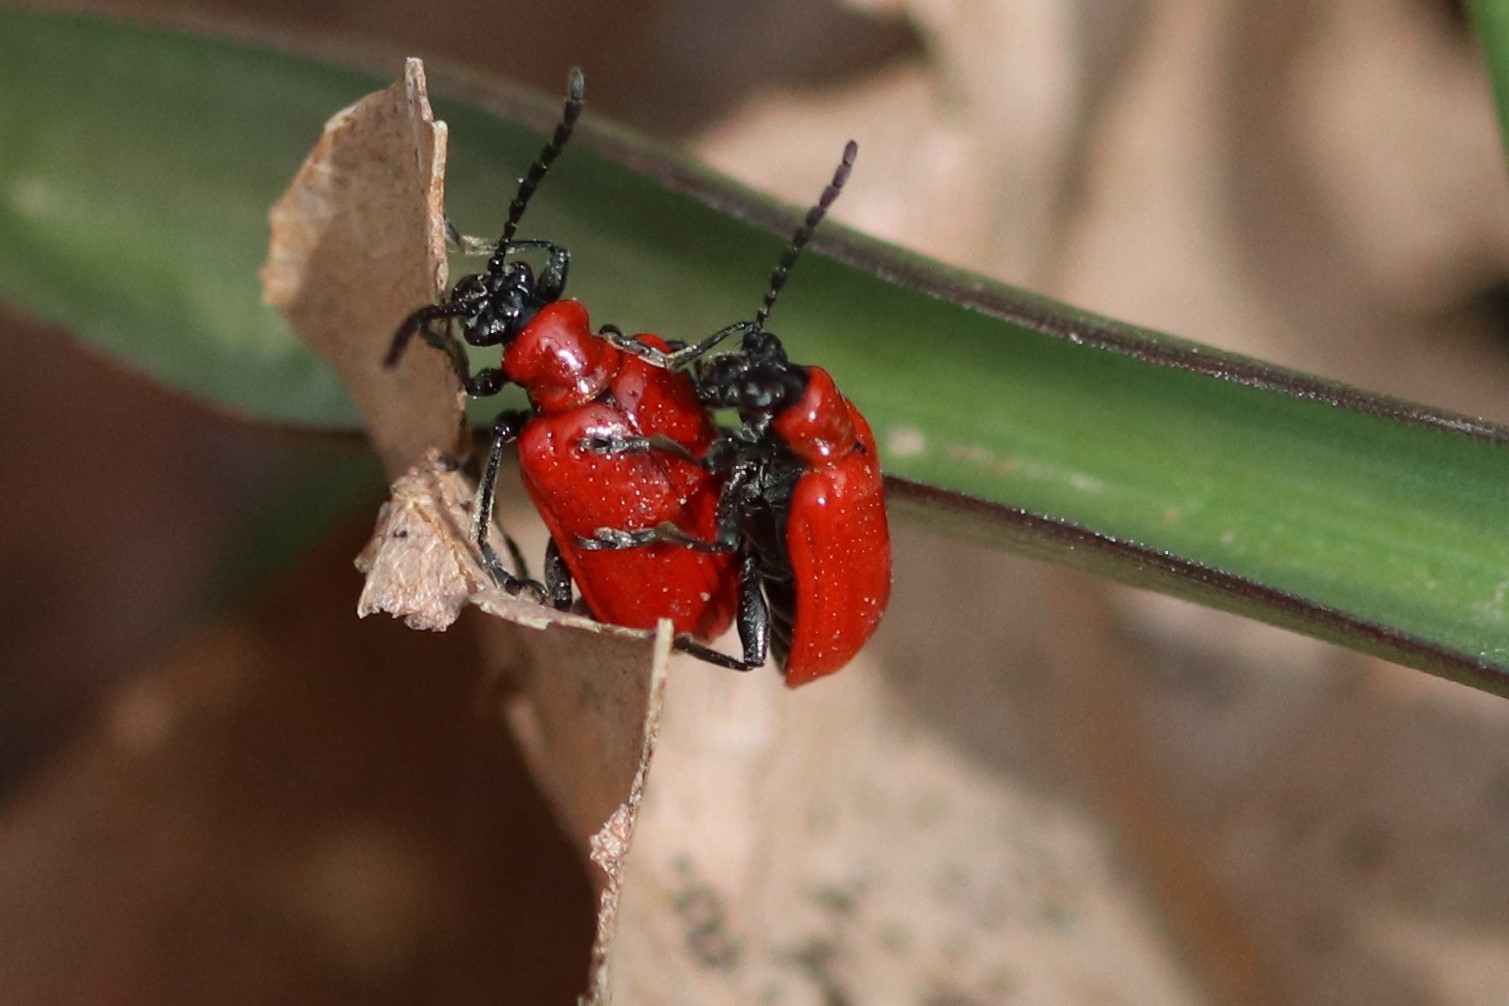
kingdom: Animalia
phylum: Arthropoda
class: Insecta
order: Coleoptera
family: Chrysomelidae
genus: Lilioceris
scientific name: Lilioceris lilii
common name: Lily beetle
